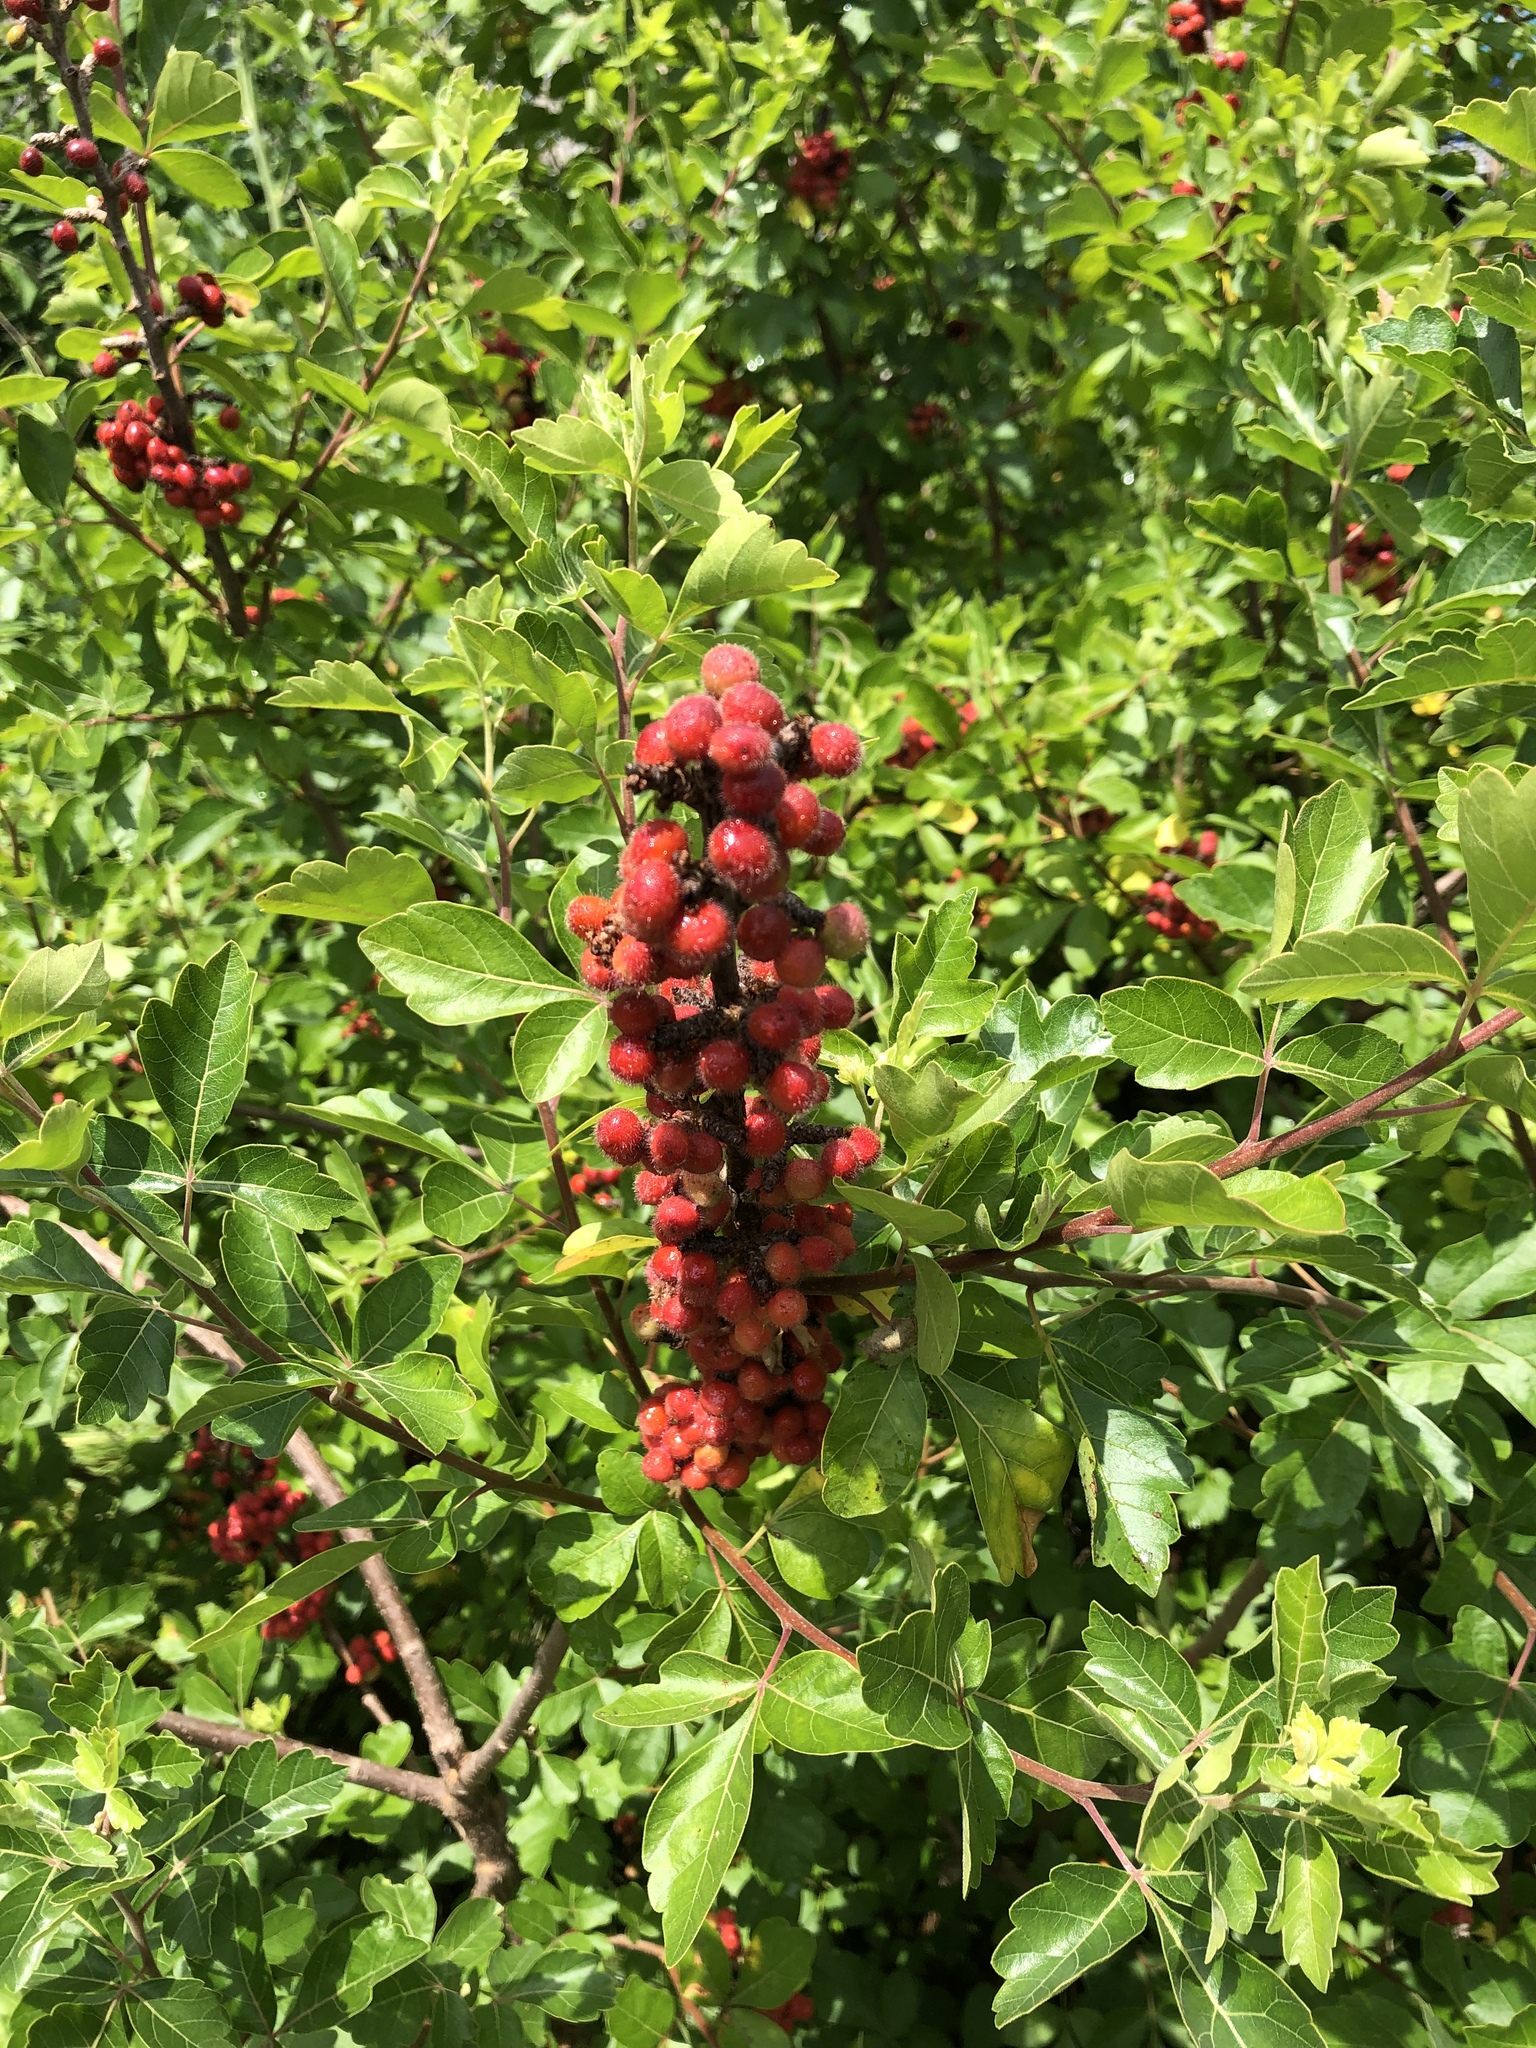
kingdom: Plantae
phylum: Tracheophyta
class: Magnoliopsida
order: Sapindales
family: Anacardiaceae
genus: Rhus
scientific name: Rhus aromatica
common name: Aromatic sumac
